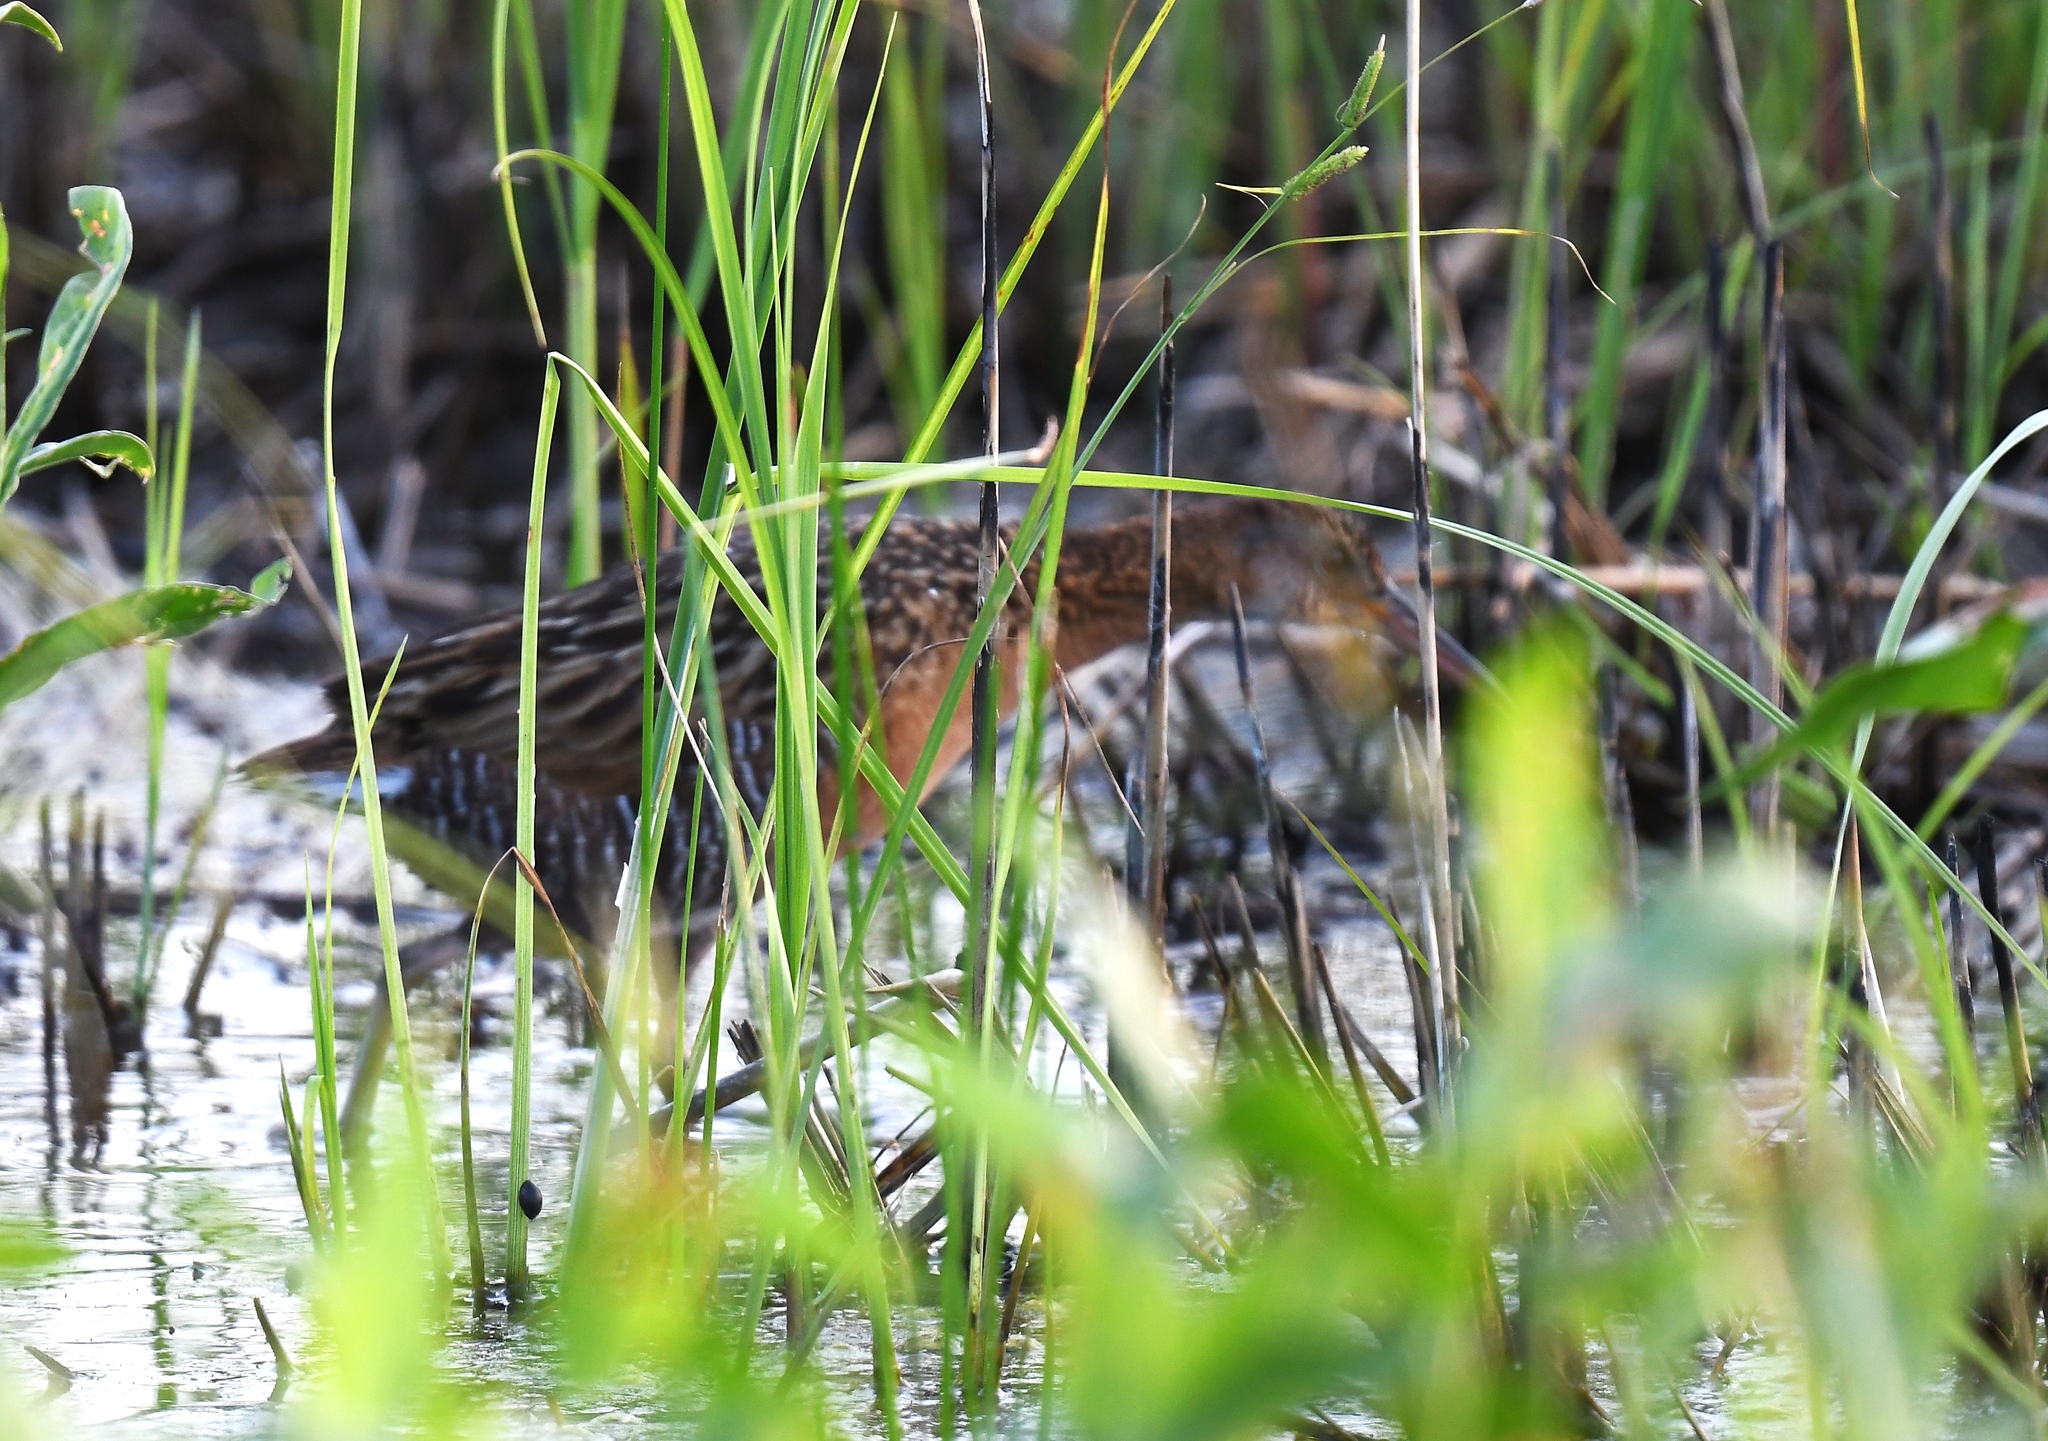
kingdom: Animalia
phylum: Chordata
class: Aves
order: Gruiformes
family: Rallidae
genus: Rallus
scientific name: Rallus elegans
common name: King rail
